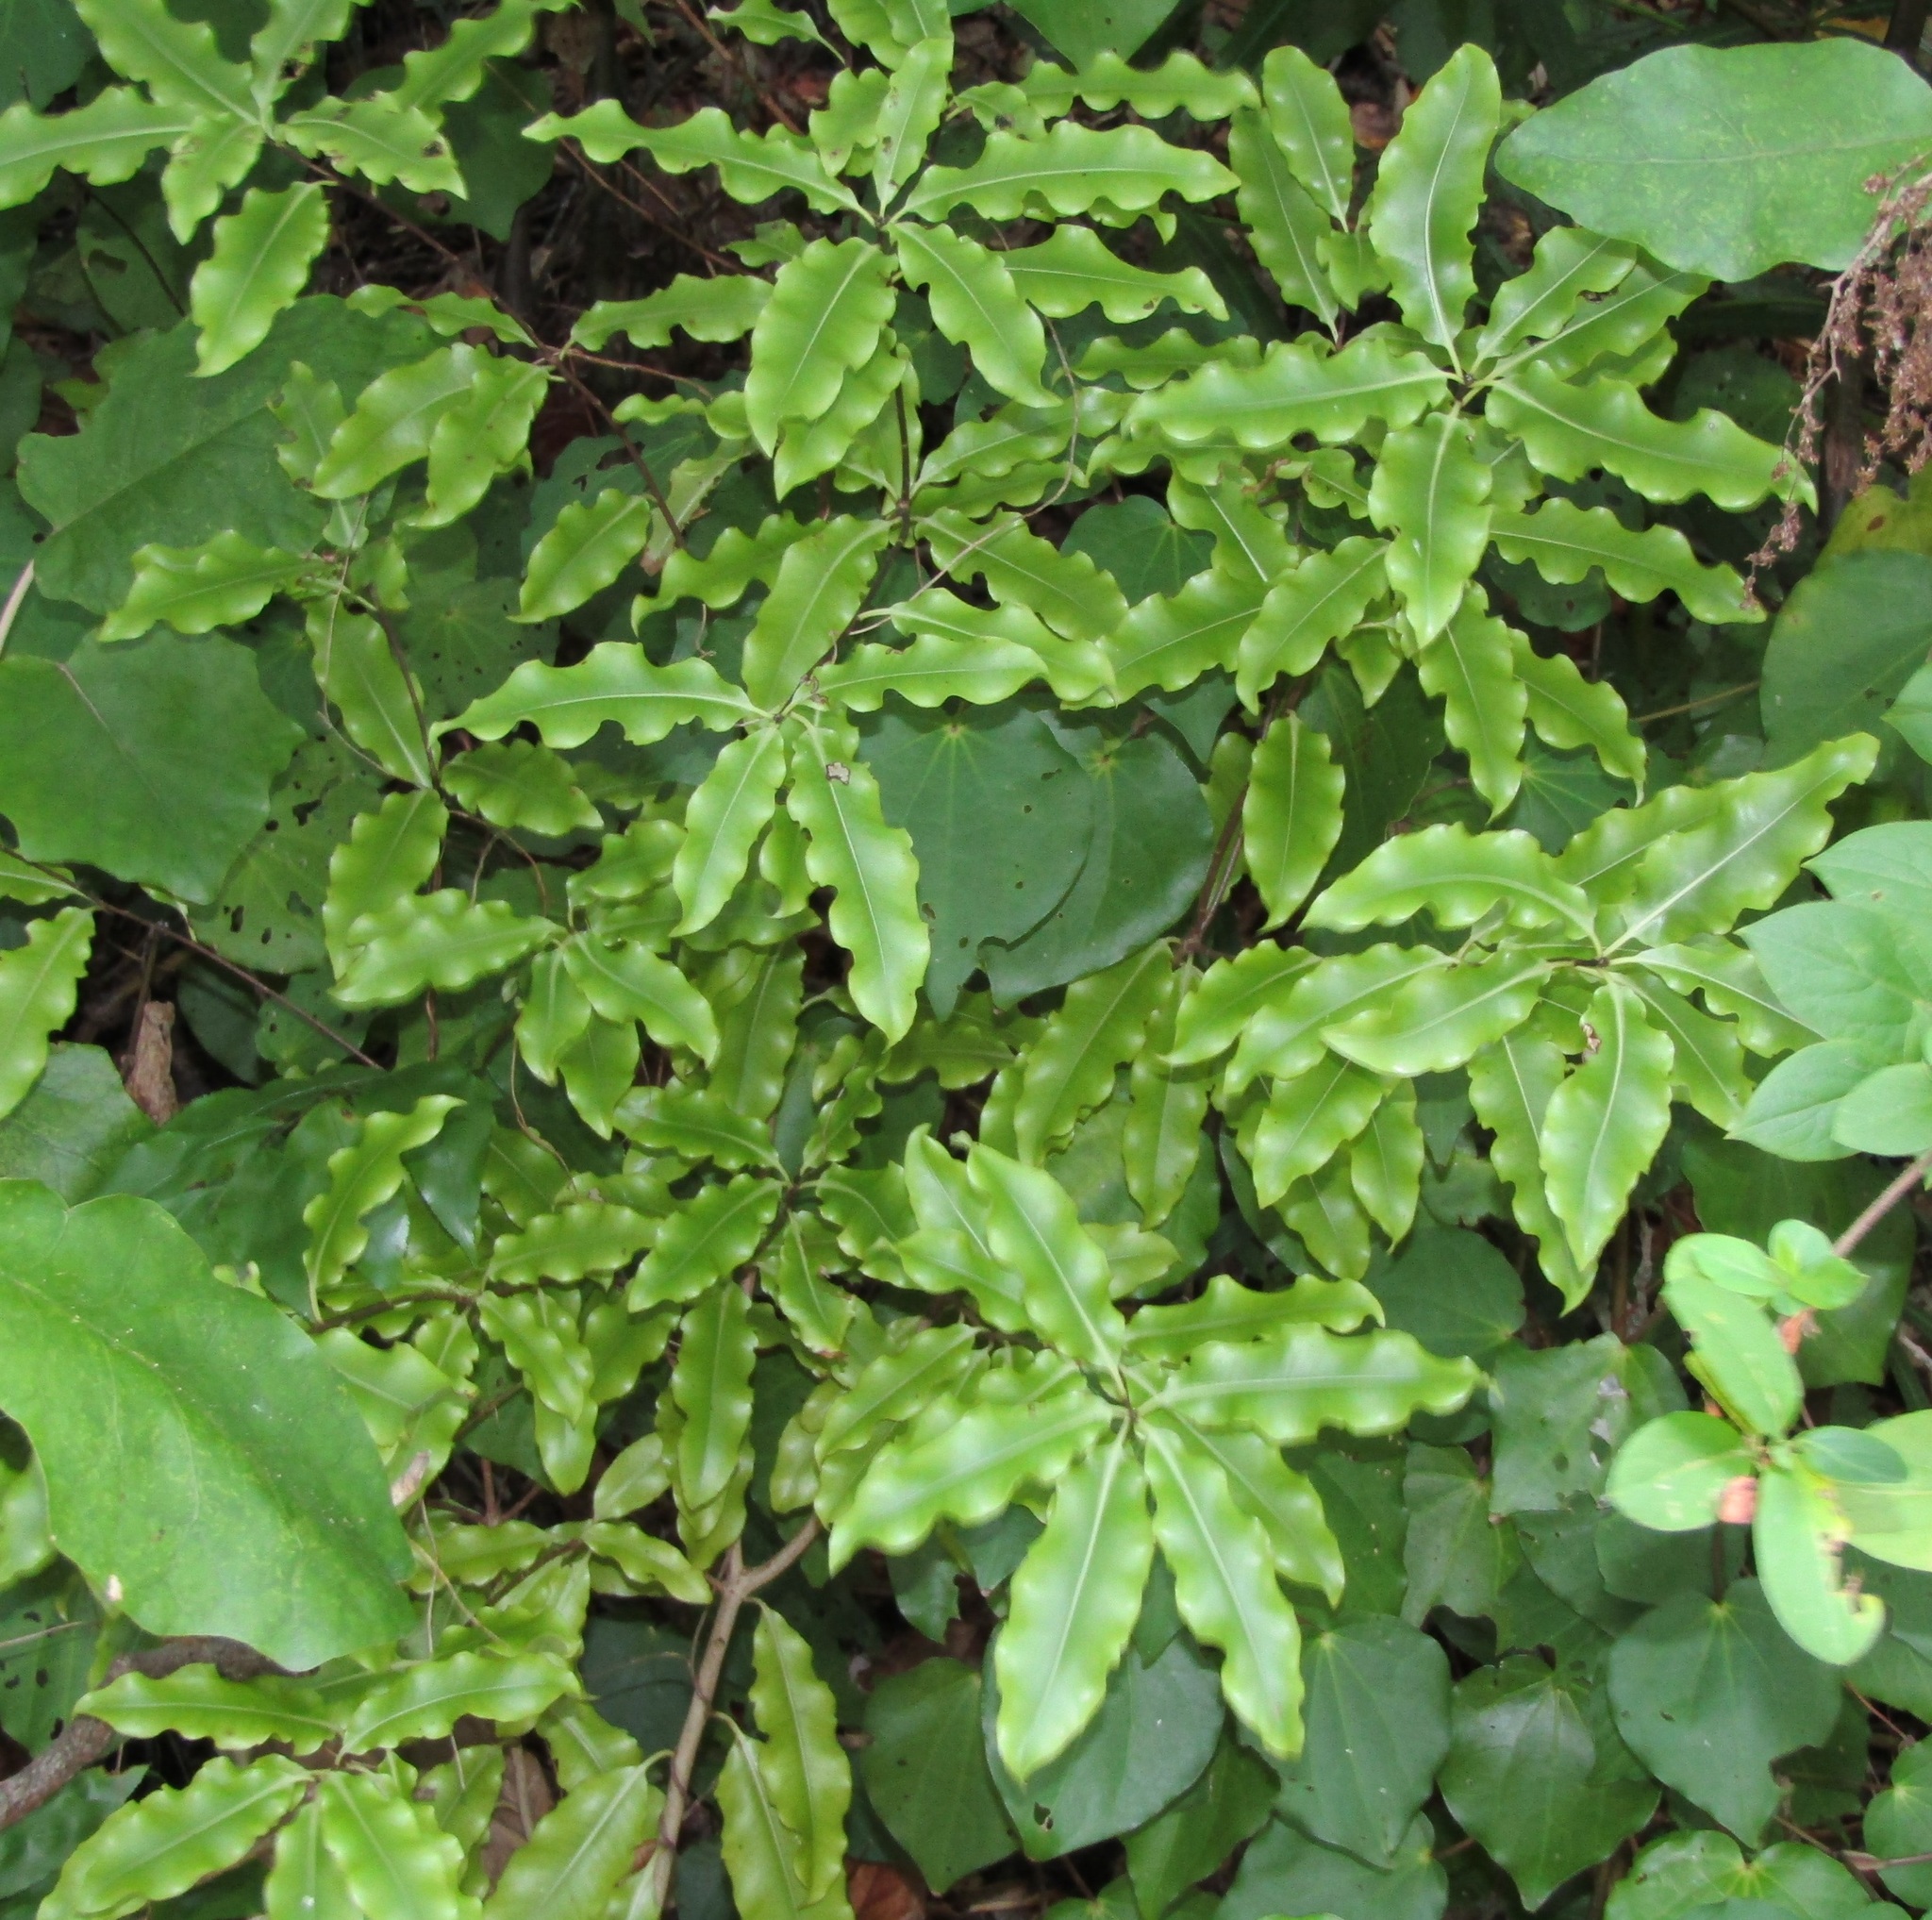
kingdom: Plantae
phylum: Tracheophyta
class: Magnoliopsida
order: Apiales
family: Pittosporaceae
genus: Pittosporum
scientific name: Pittosporum eugenioides
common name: Lemonwood
